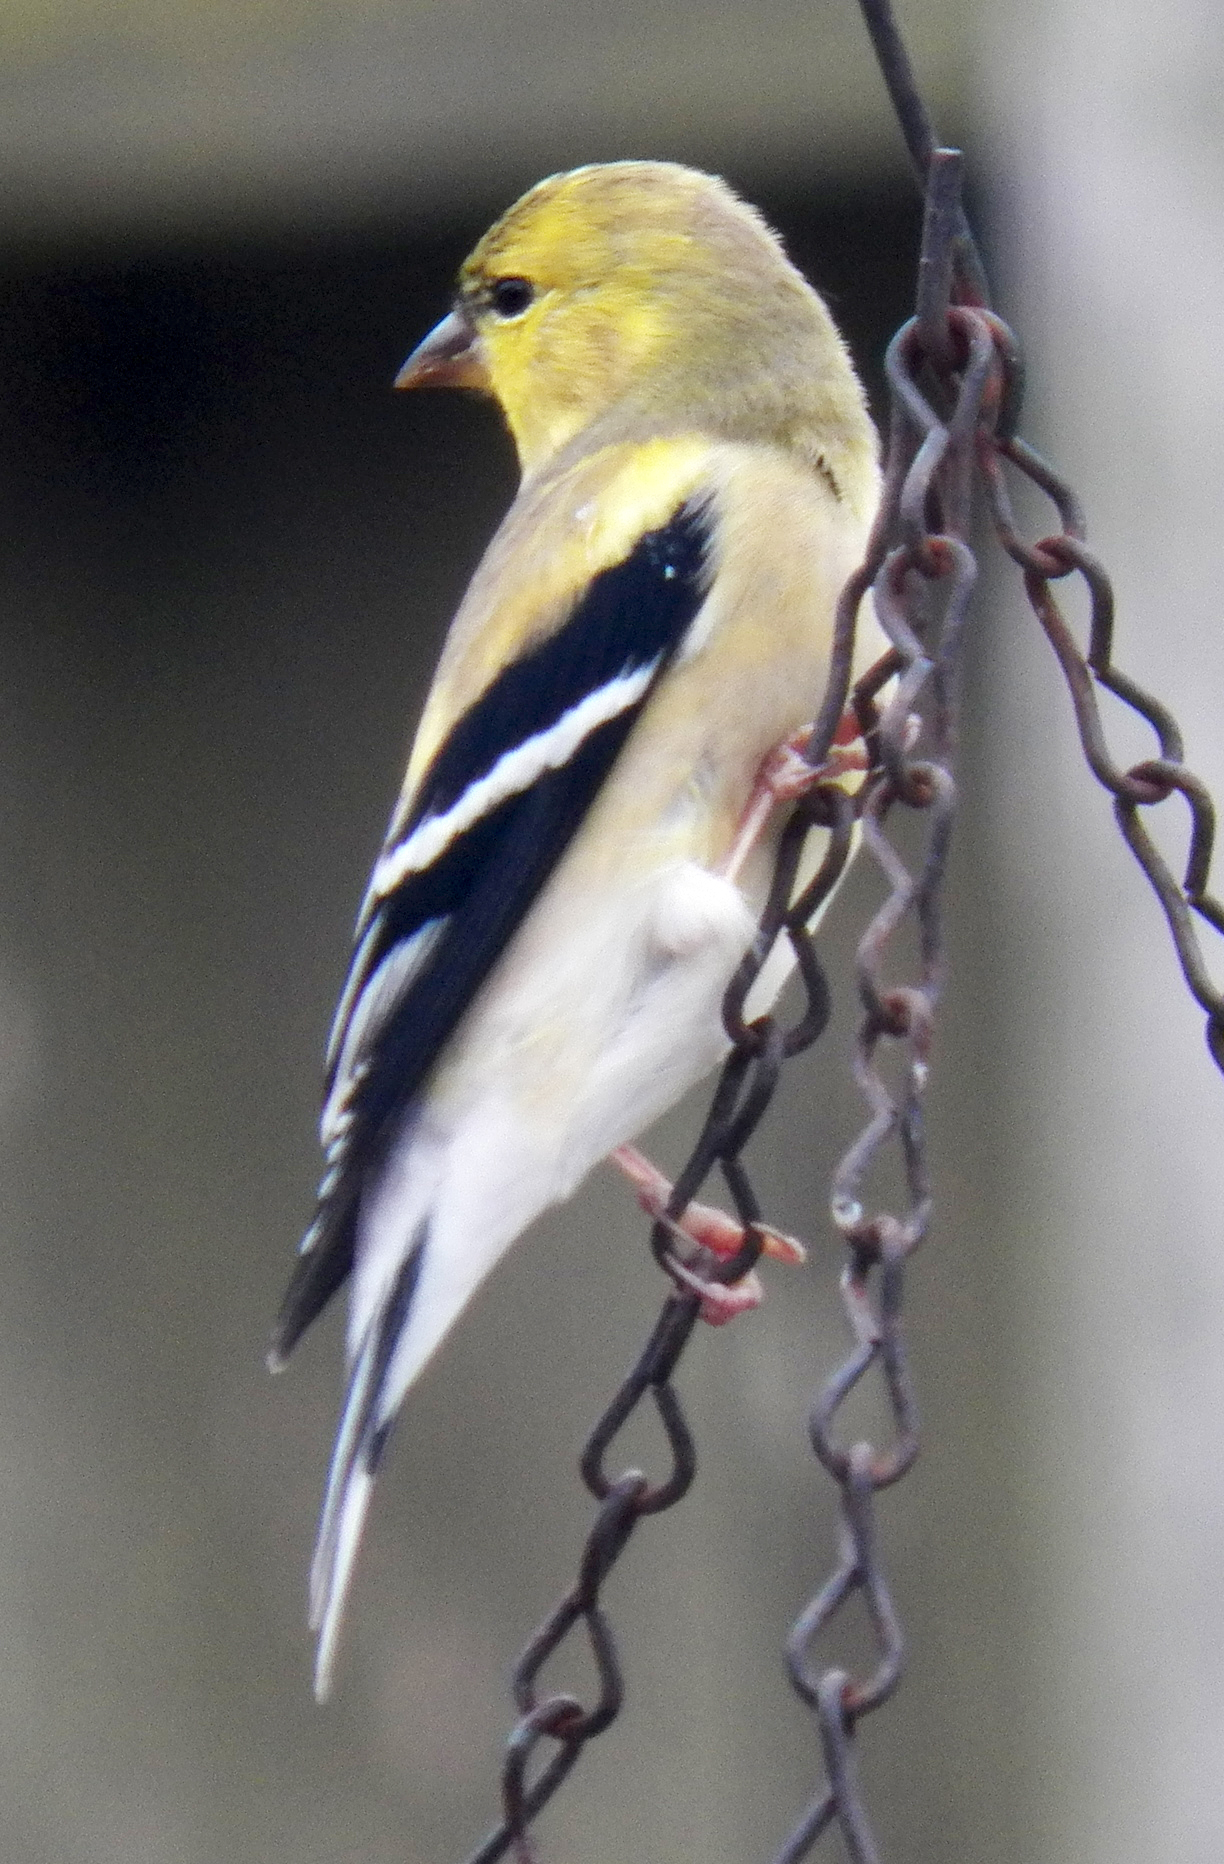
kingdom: Animalia
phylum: Chordata
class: Aves
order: Passeriformes
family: Fringillidae
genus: Spinus
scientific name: Spinus tristis
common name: American goldfinch
